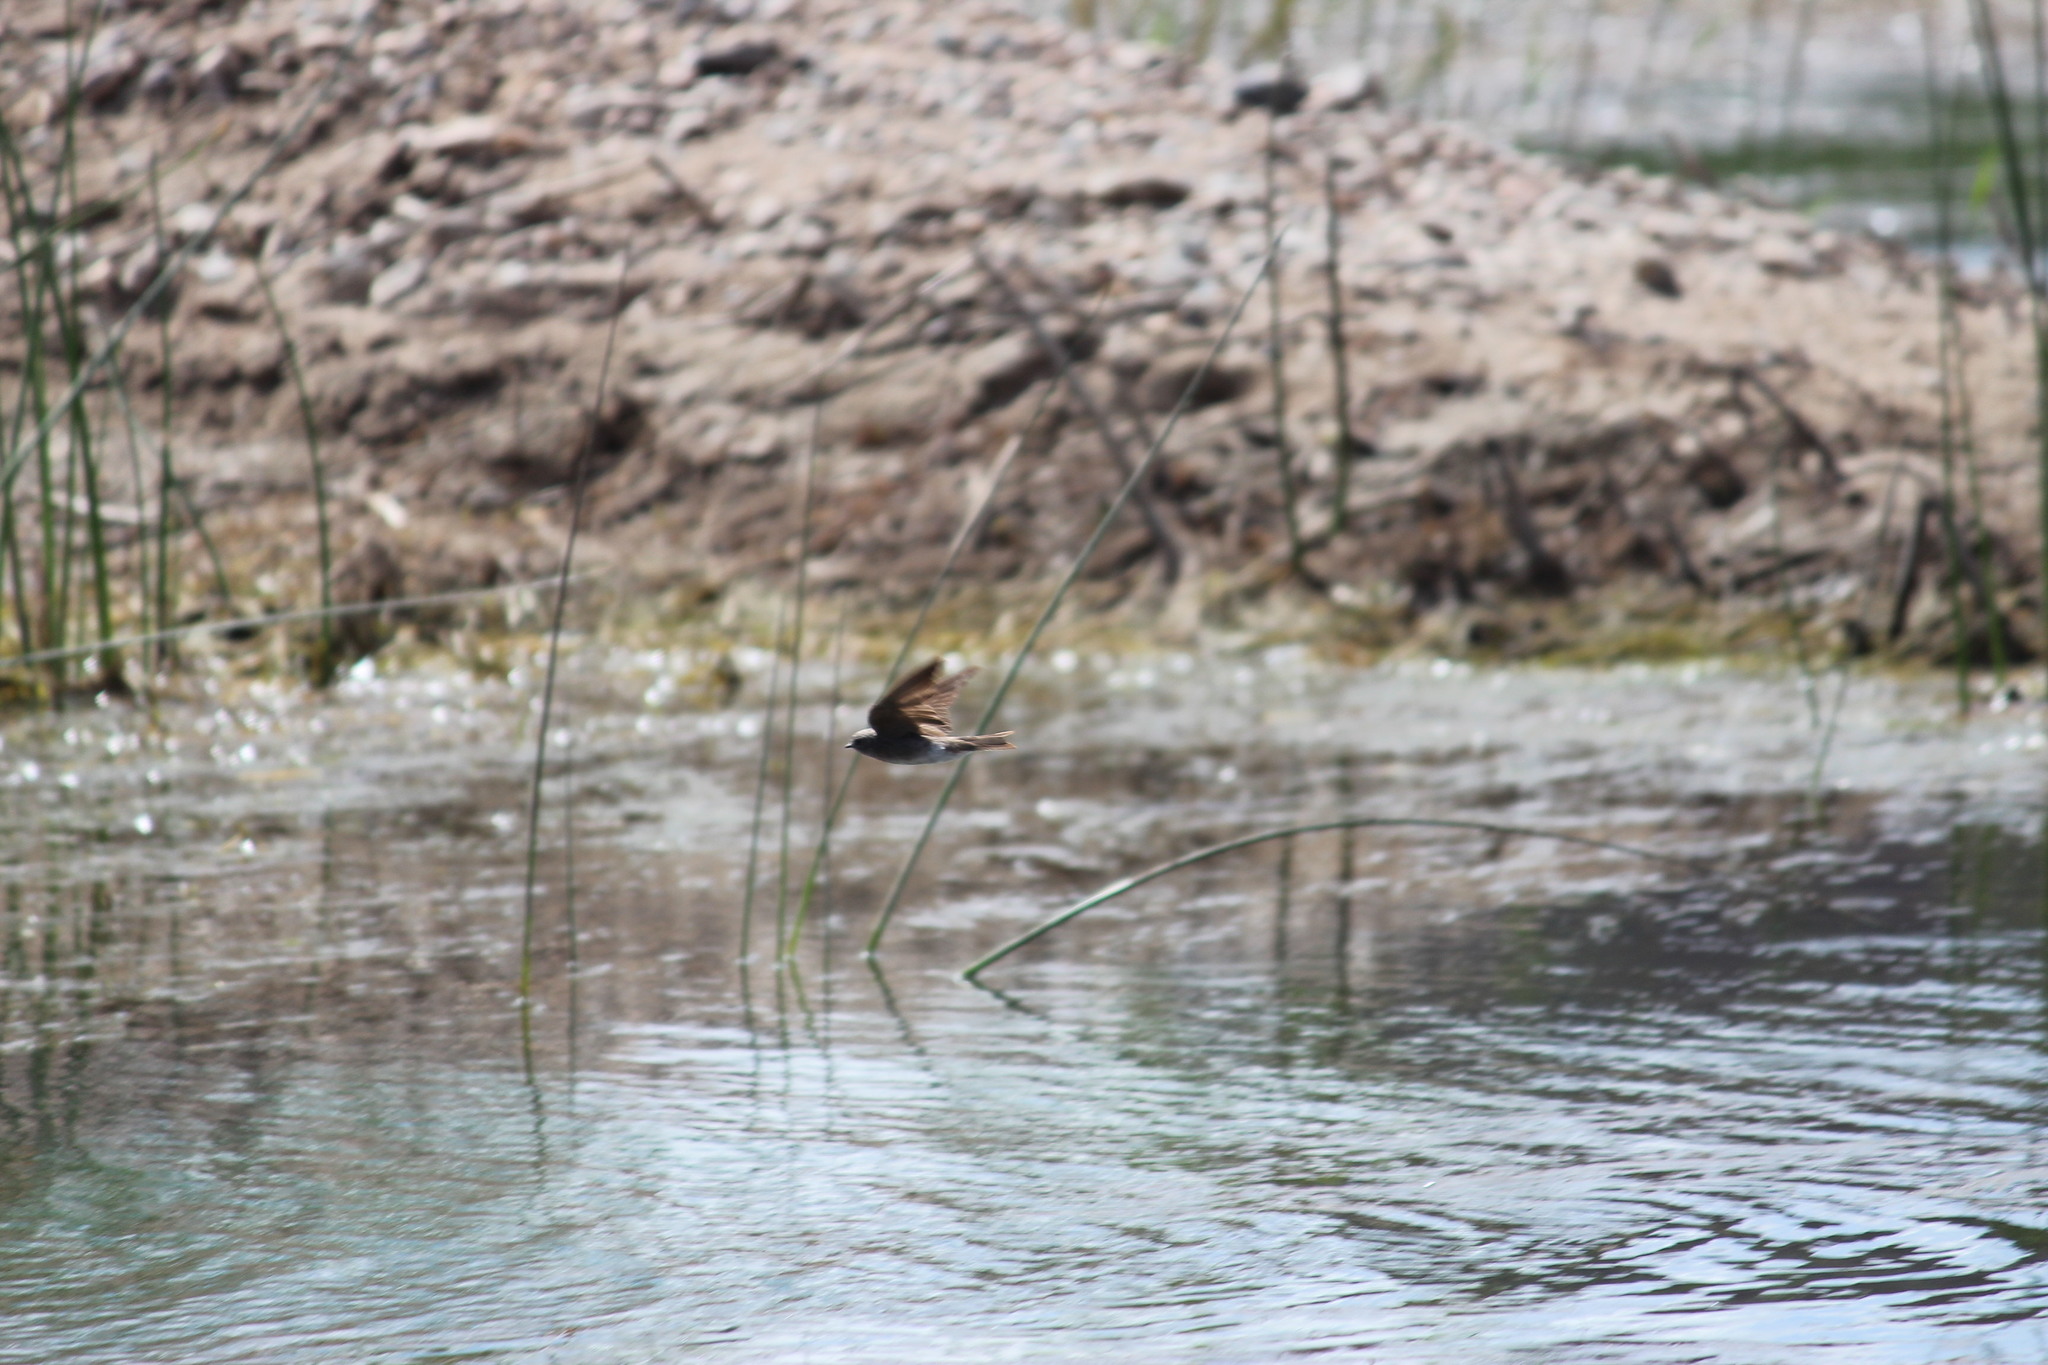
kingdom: Animalia
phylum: Chordata
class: Aves
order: Passeriformes
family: Hirundinidae
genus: Riparia
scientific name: Riparia paludicola
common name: Brown-throated martin
